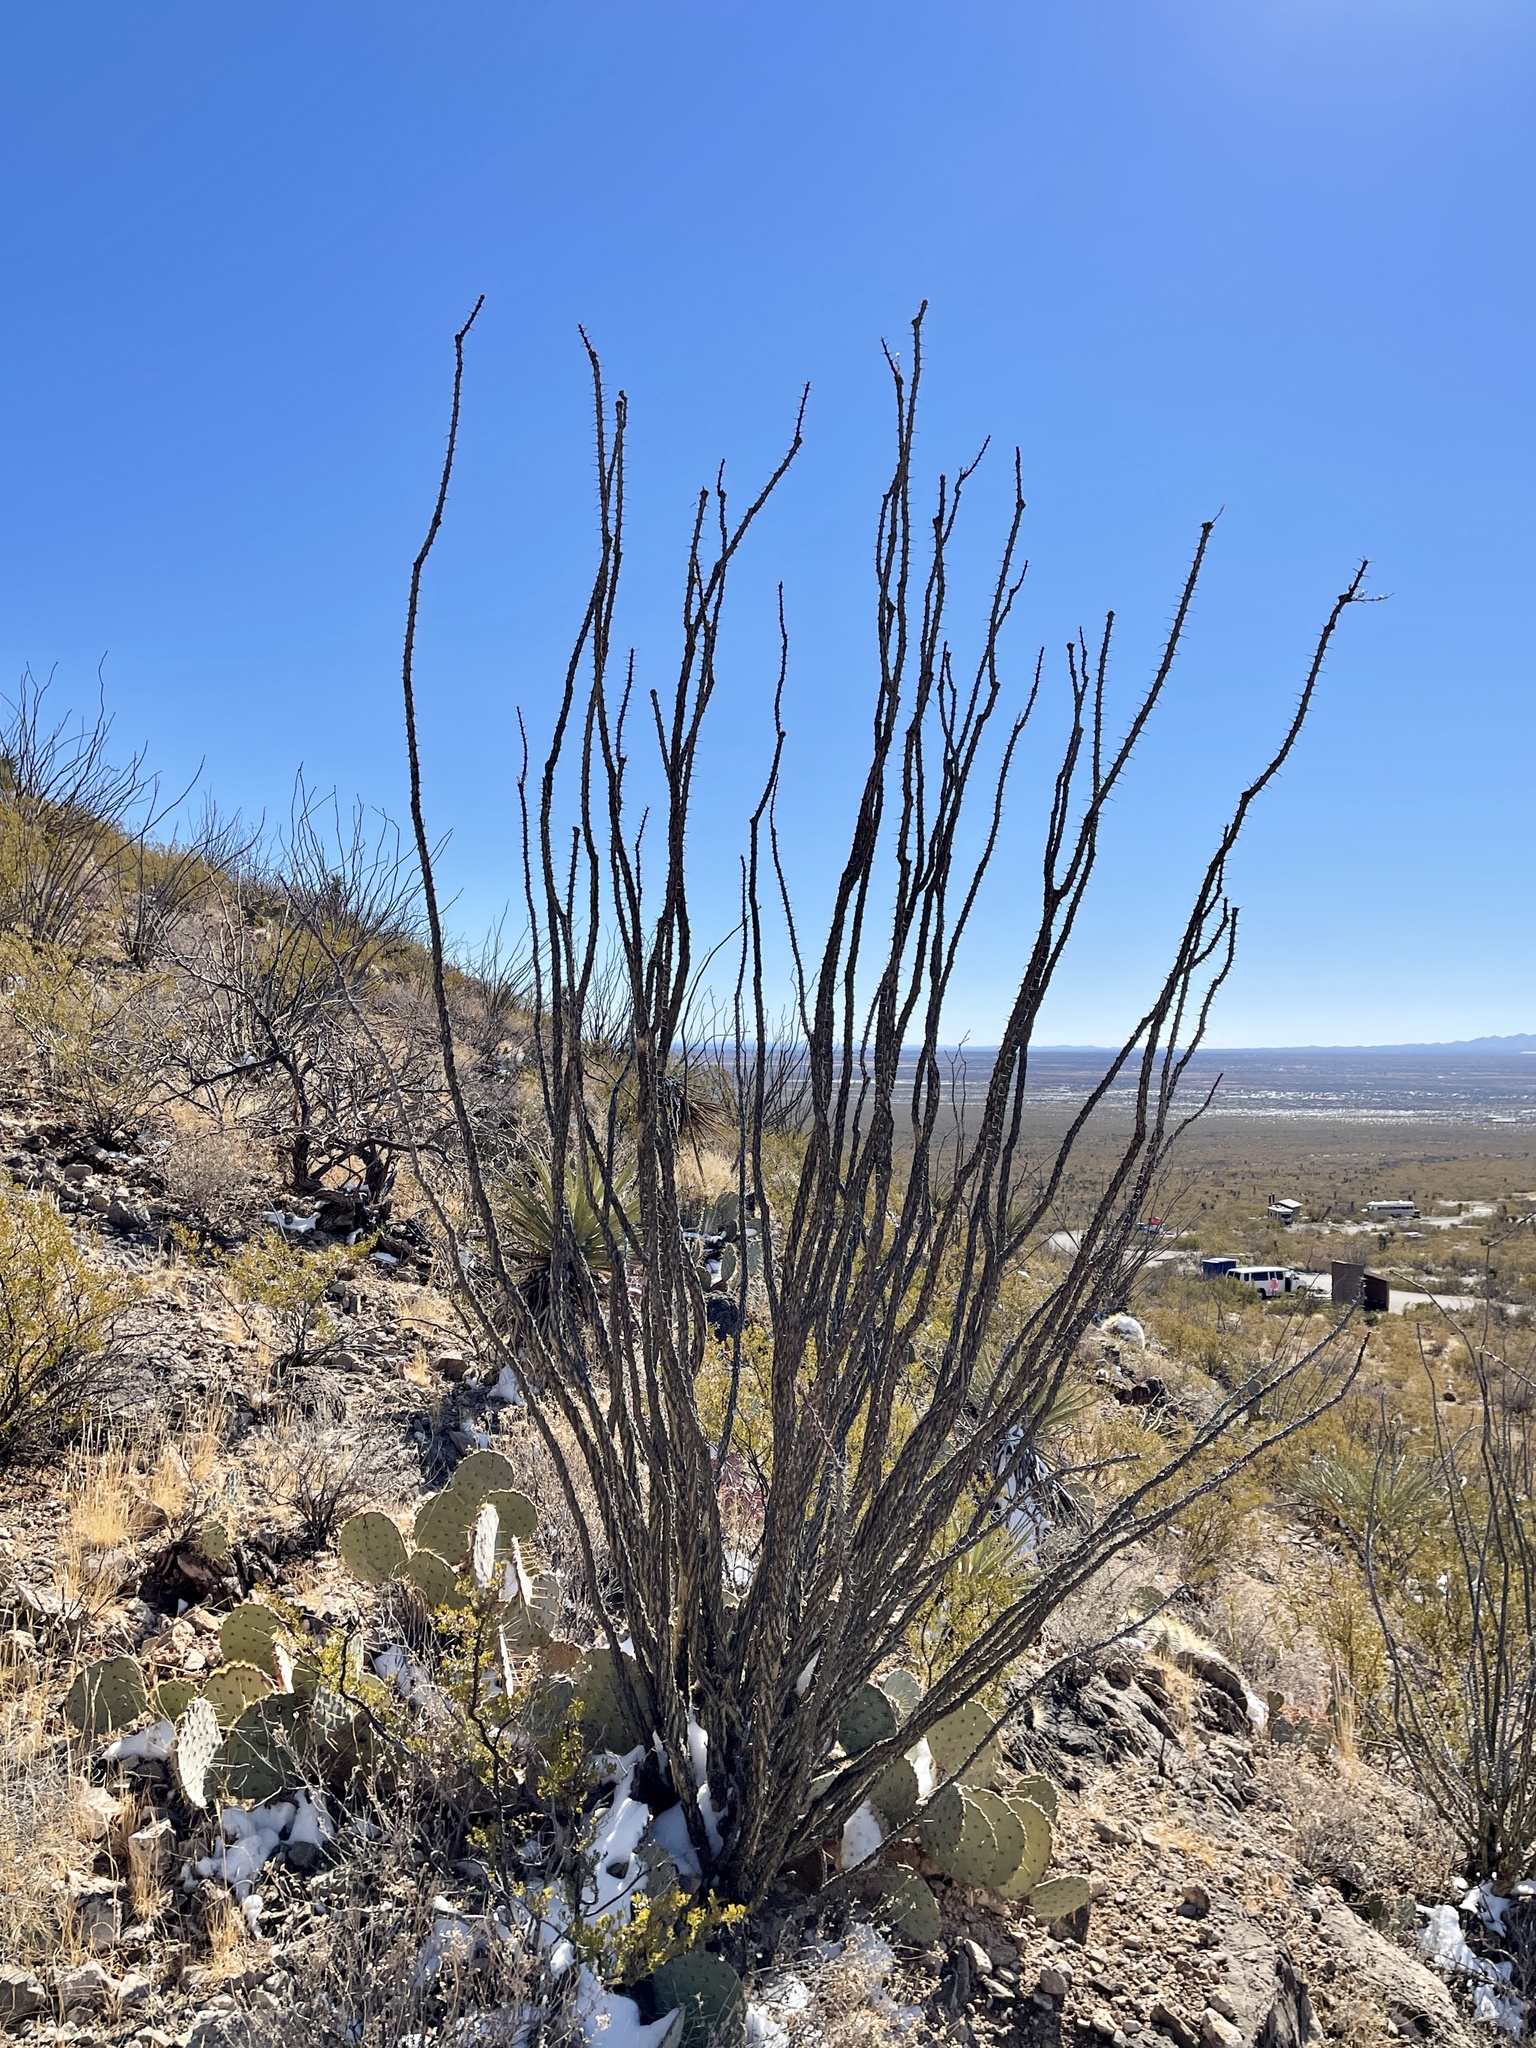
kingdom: Plantae
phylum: Tracheophyta
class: Magnoliopsida
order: Ericales
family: Fouquieriaceae
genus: Fouquieria
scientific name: Fouquieria splendens
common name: Vine-cactus
